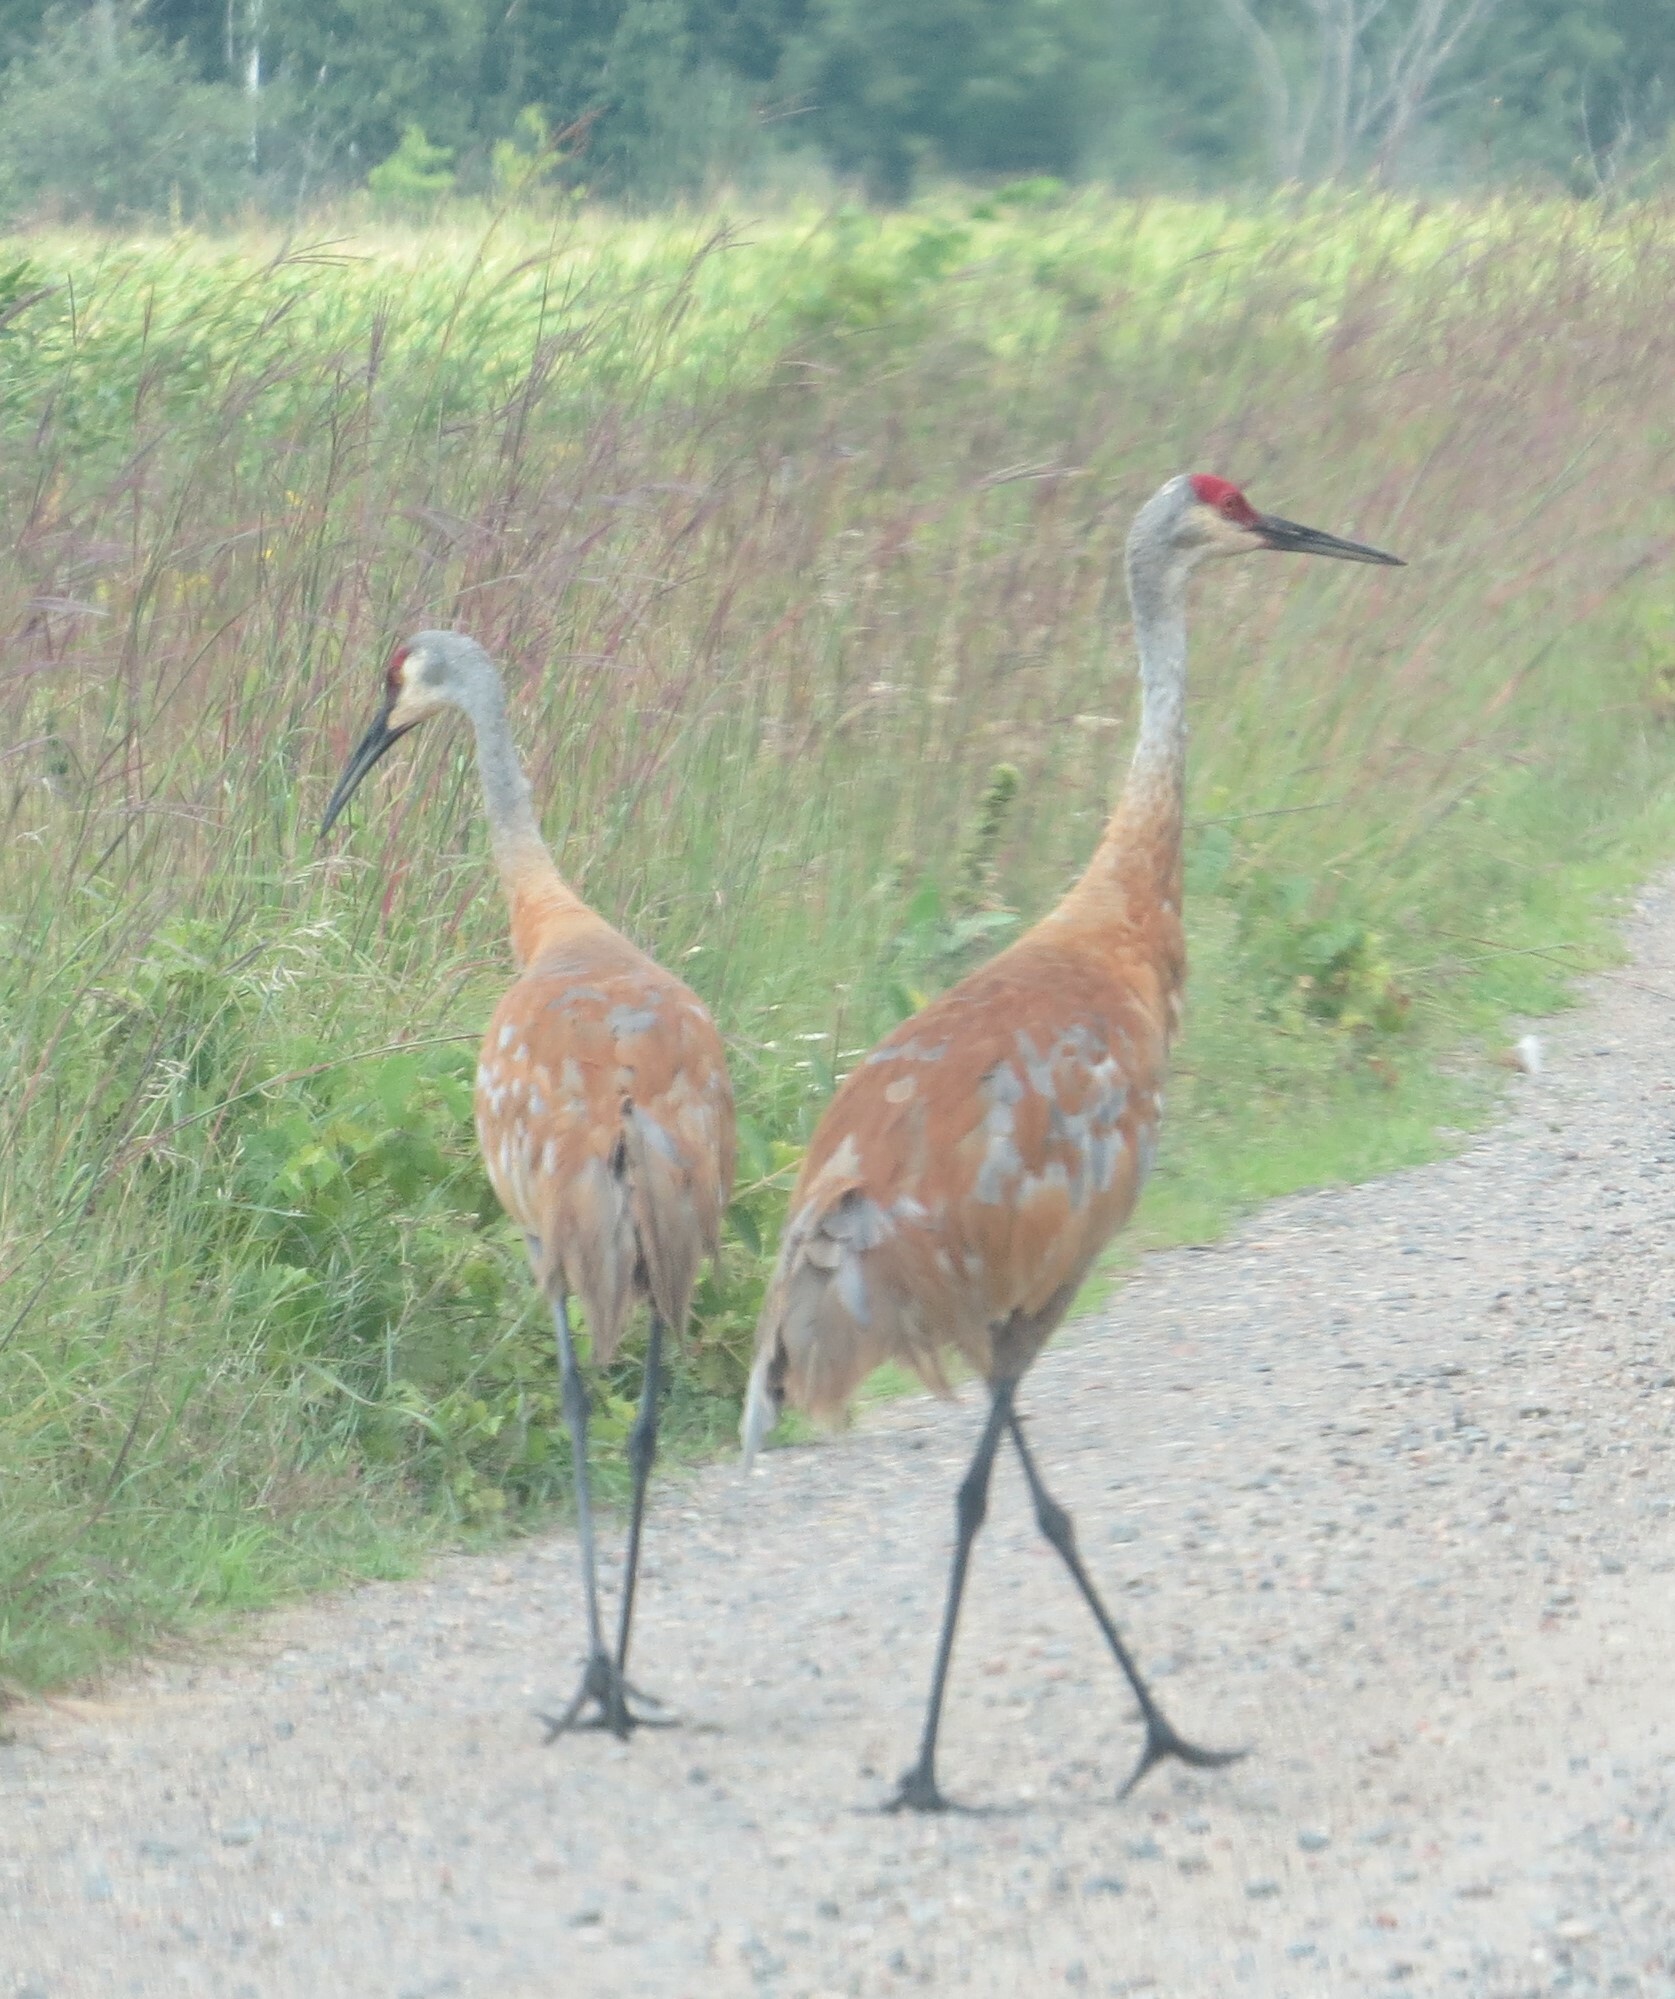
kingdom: Animalia
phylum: Chordata
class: Aves
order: Gruiformes
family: Gruidae
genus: Grus
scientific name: Grus canadensis
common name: Sandhill crane
